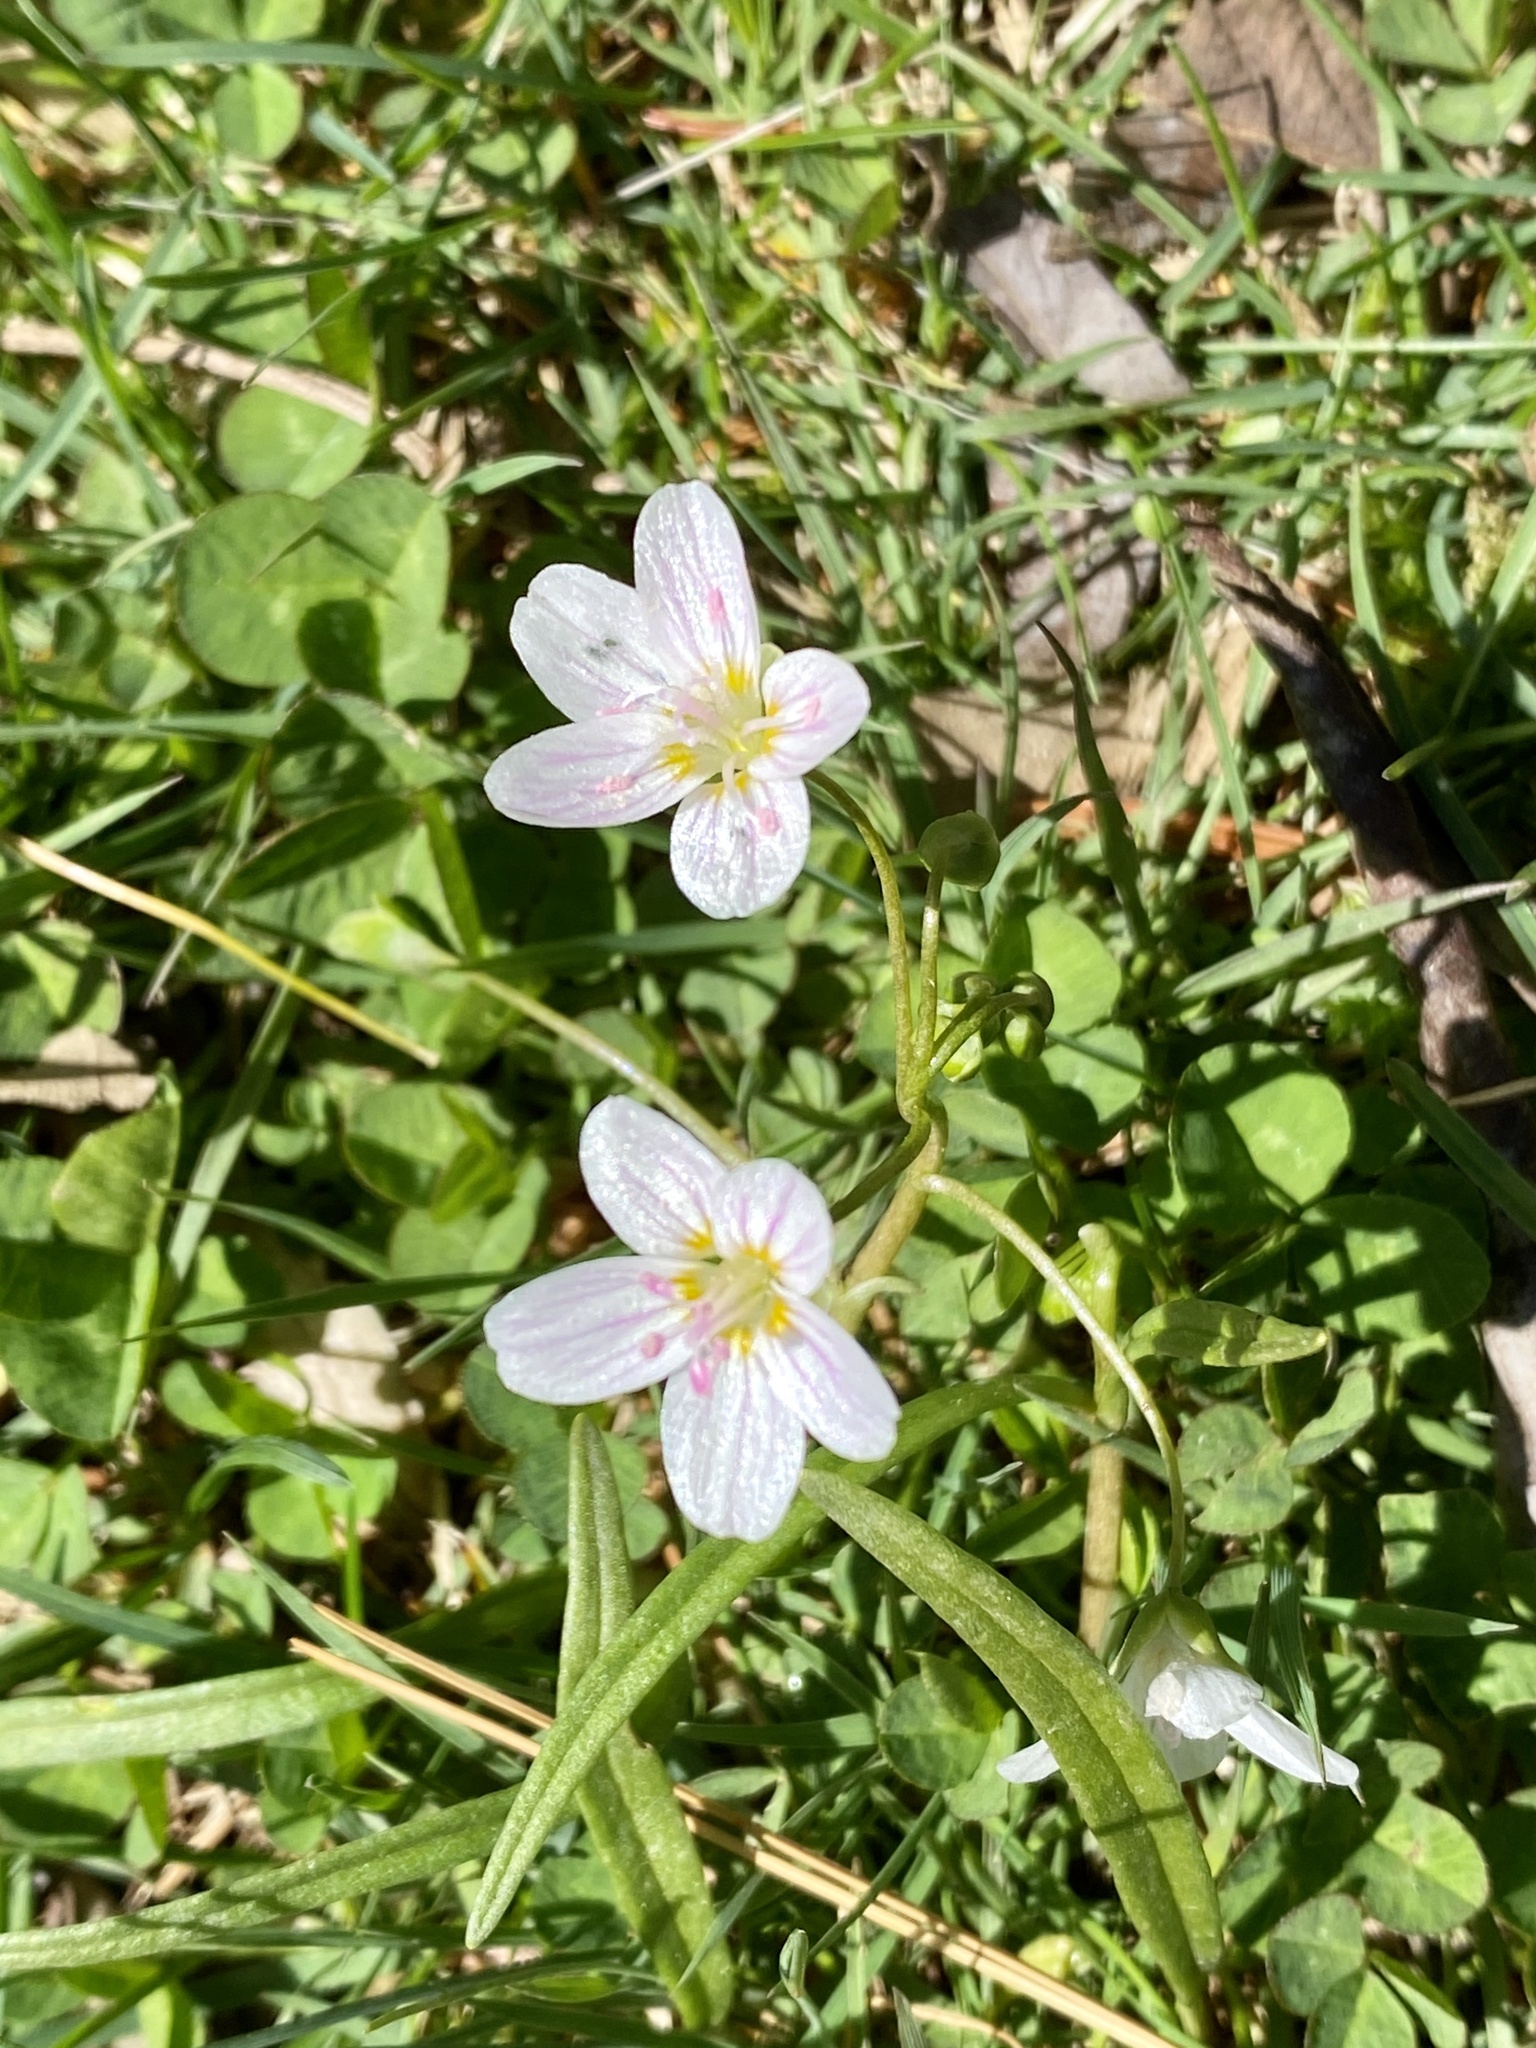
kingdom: Plantae
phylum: Tracheophyta
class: Magnoliopsida
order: Caryophyllales
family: Montiaceae
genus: Claytonia
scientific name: Claytonia virginica
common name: Virginia springbeauty
